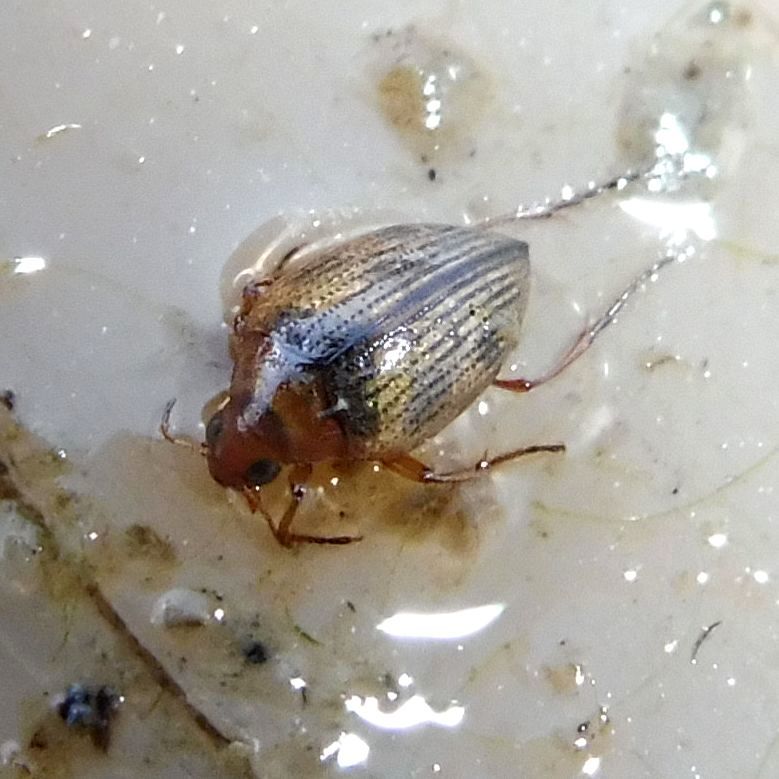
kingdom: Animalia
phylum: Arthropoda
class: Insecta
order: Coleoptera
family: Haliplidae
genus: Haliplus
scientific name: Haliplus
